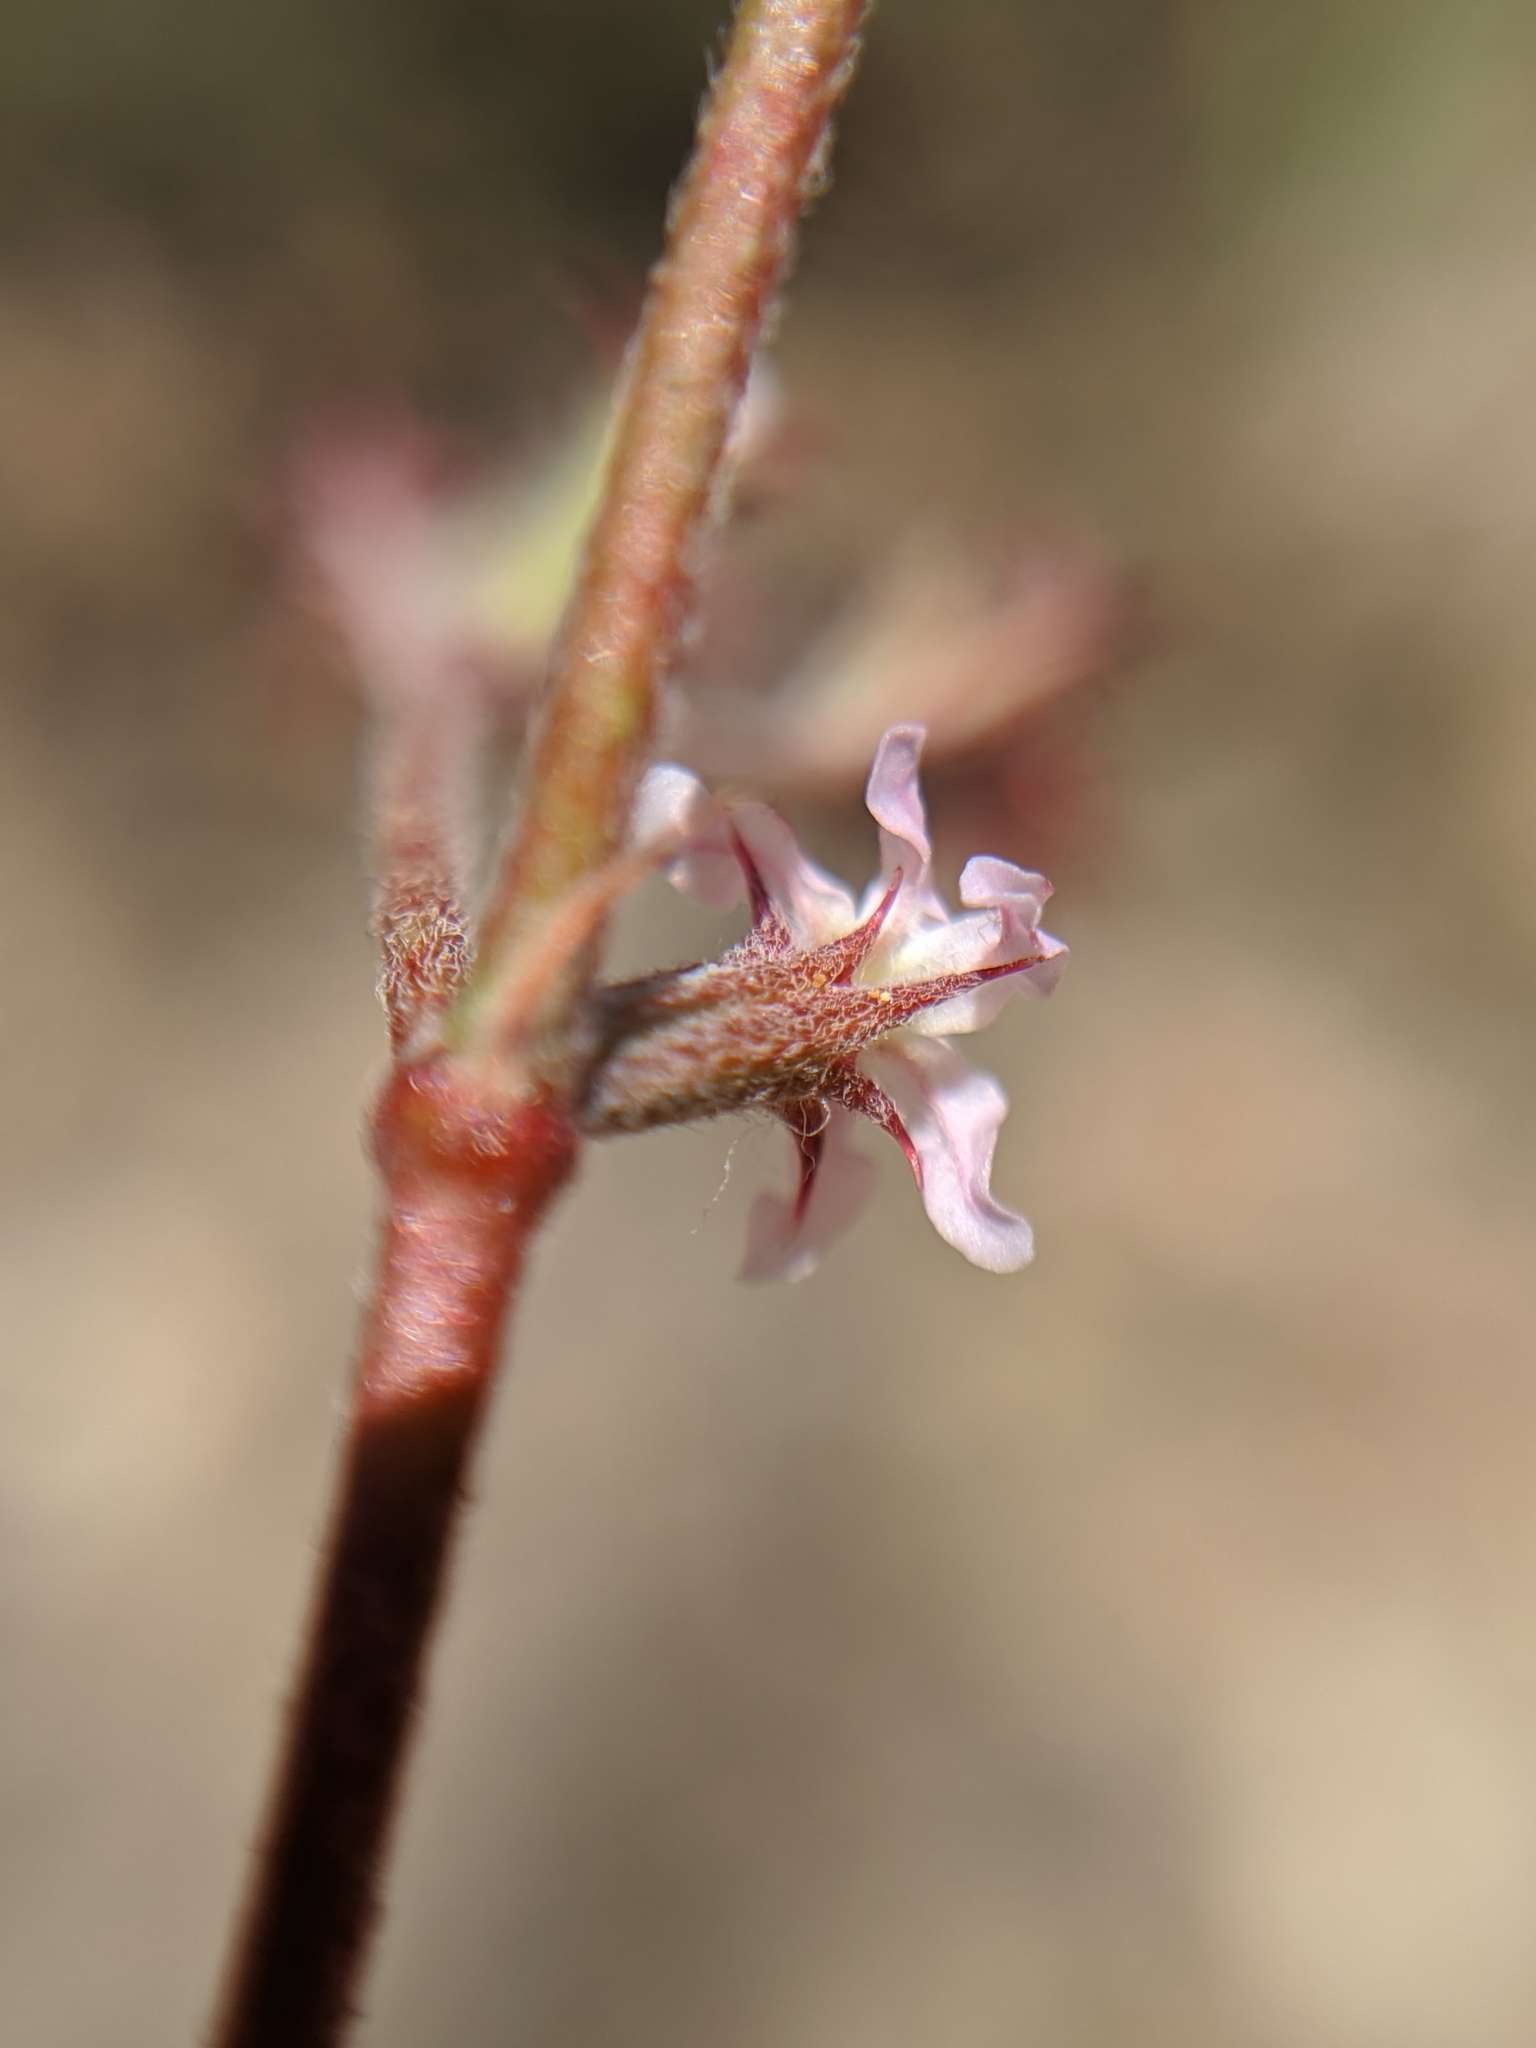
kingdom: Plantae
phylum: Tracheophyta
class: Magnoliopsida
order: Caryophyllales
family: Polygonaceae
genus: Chorizanthe
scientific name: Chorizanthe xanti
